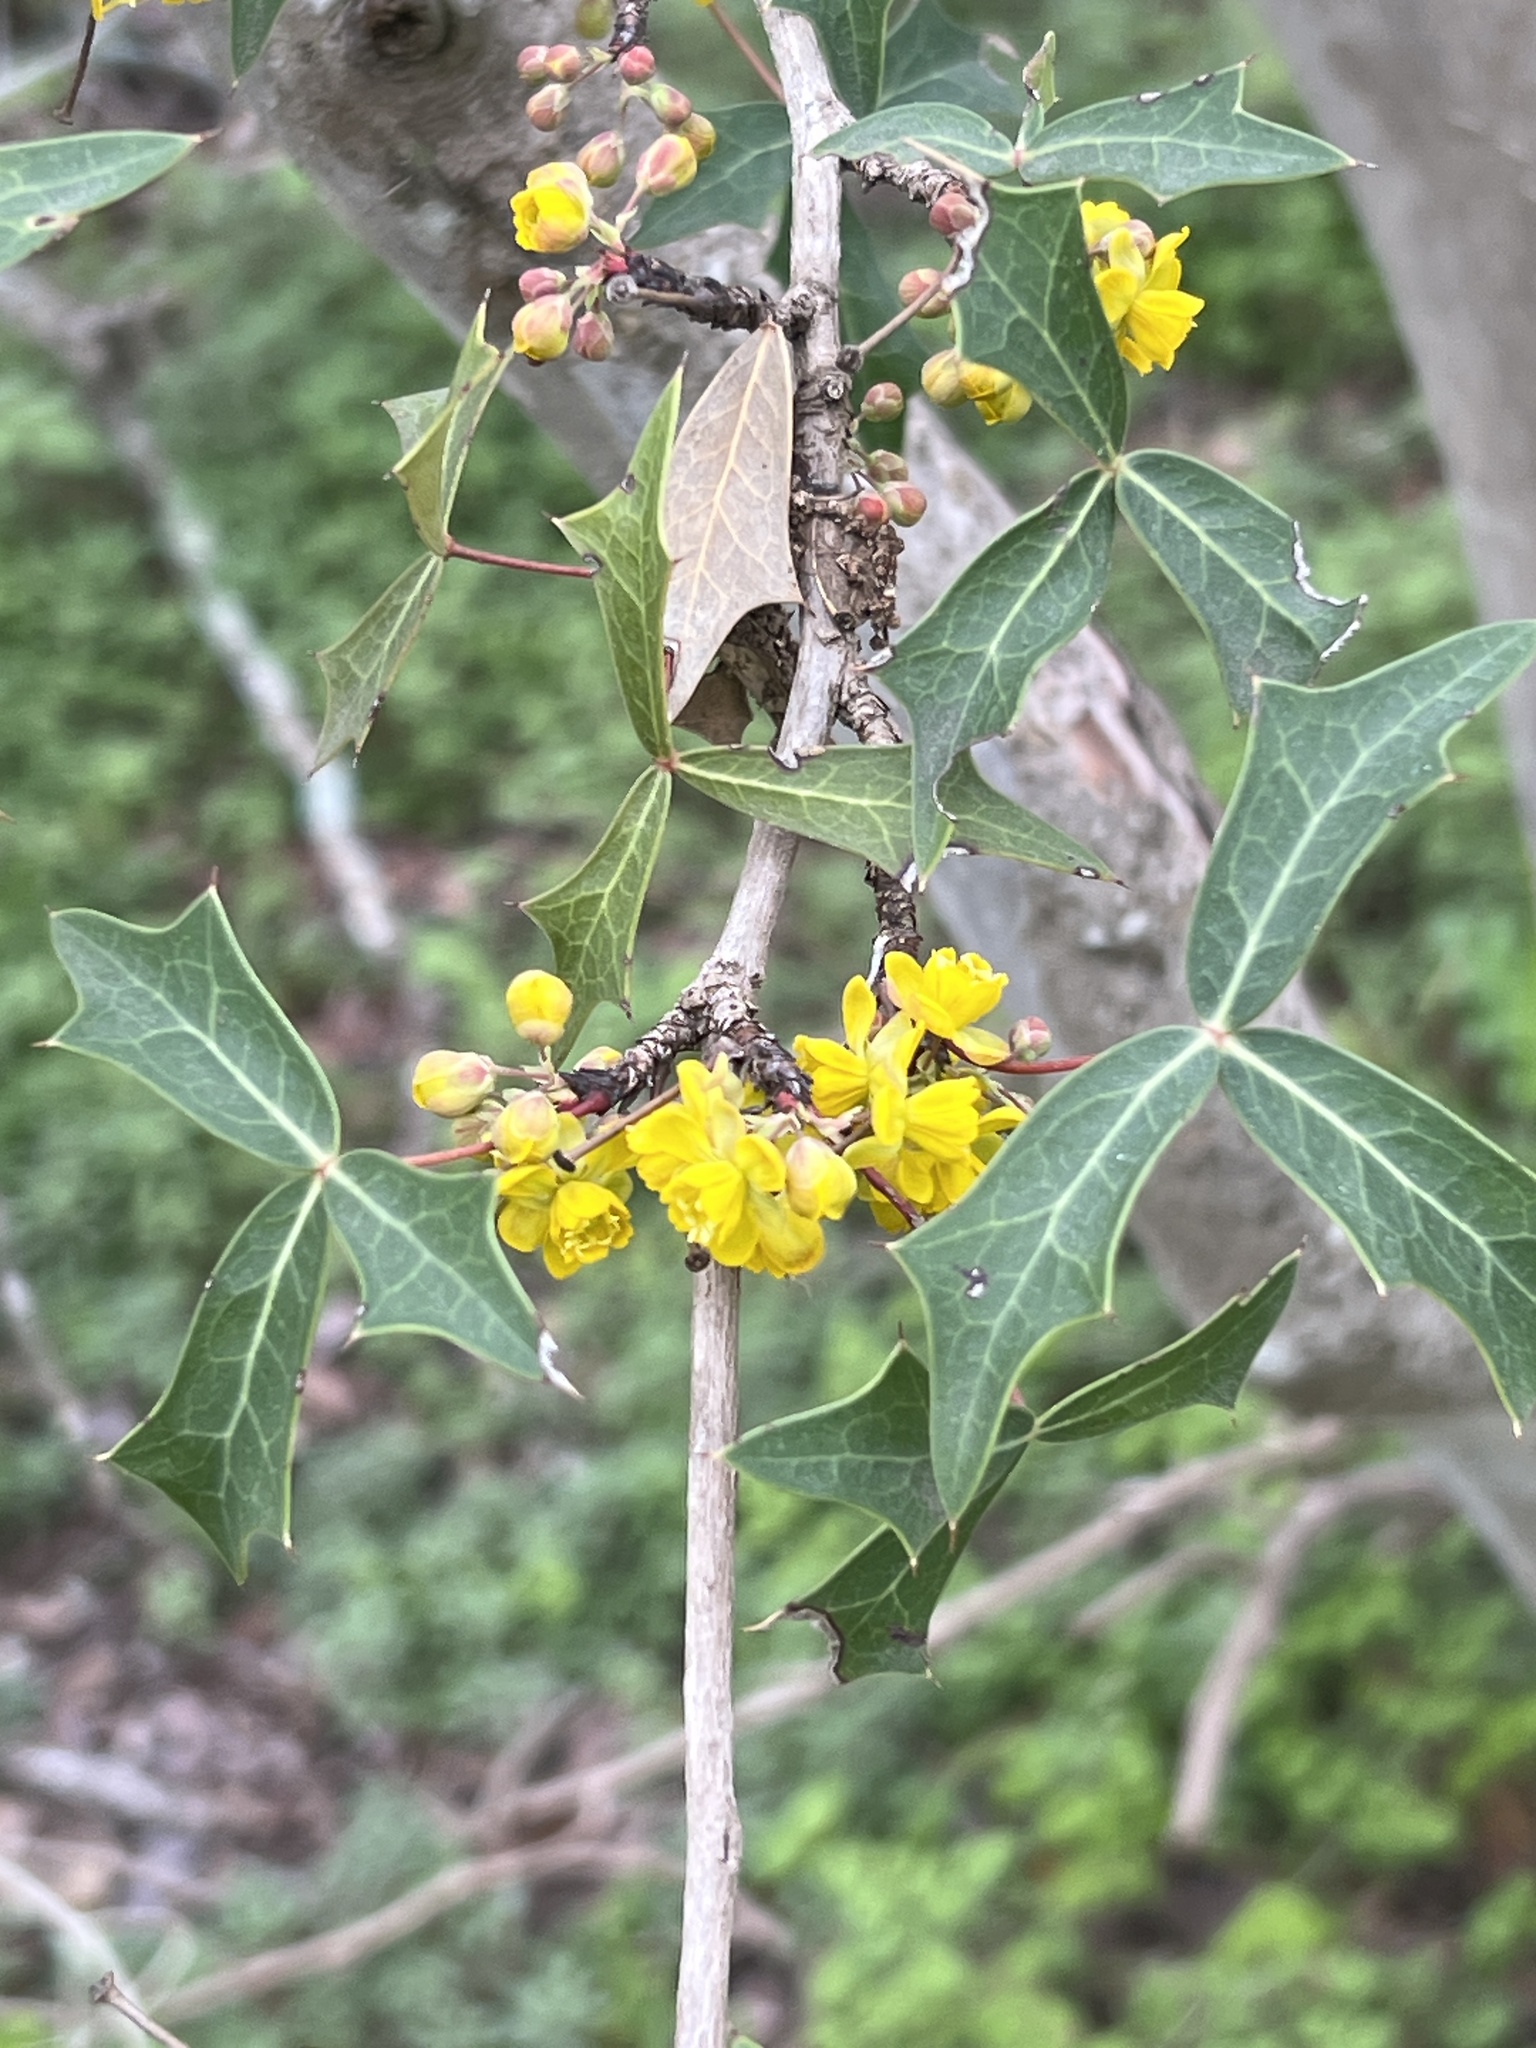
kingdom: Plantae
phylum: Tracheophyta
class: Magnoliopsida
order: Ranunculales
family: Berberidaceae
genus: Alloberberis
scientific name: Alloberberis trifoliolata
